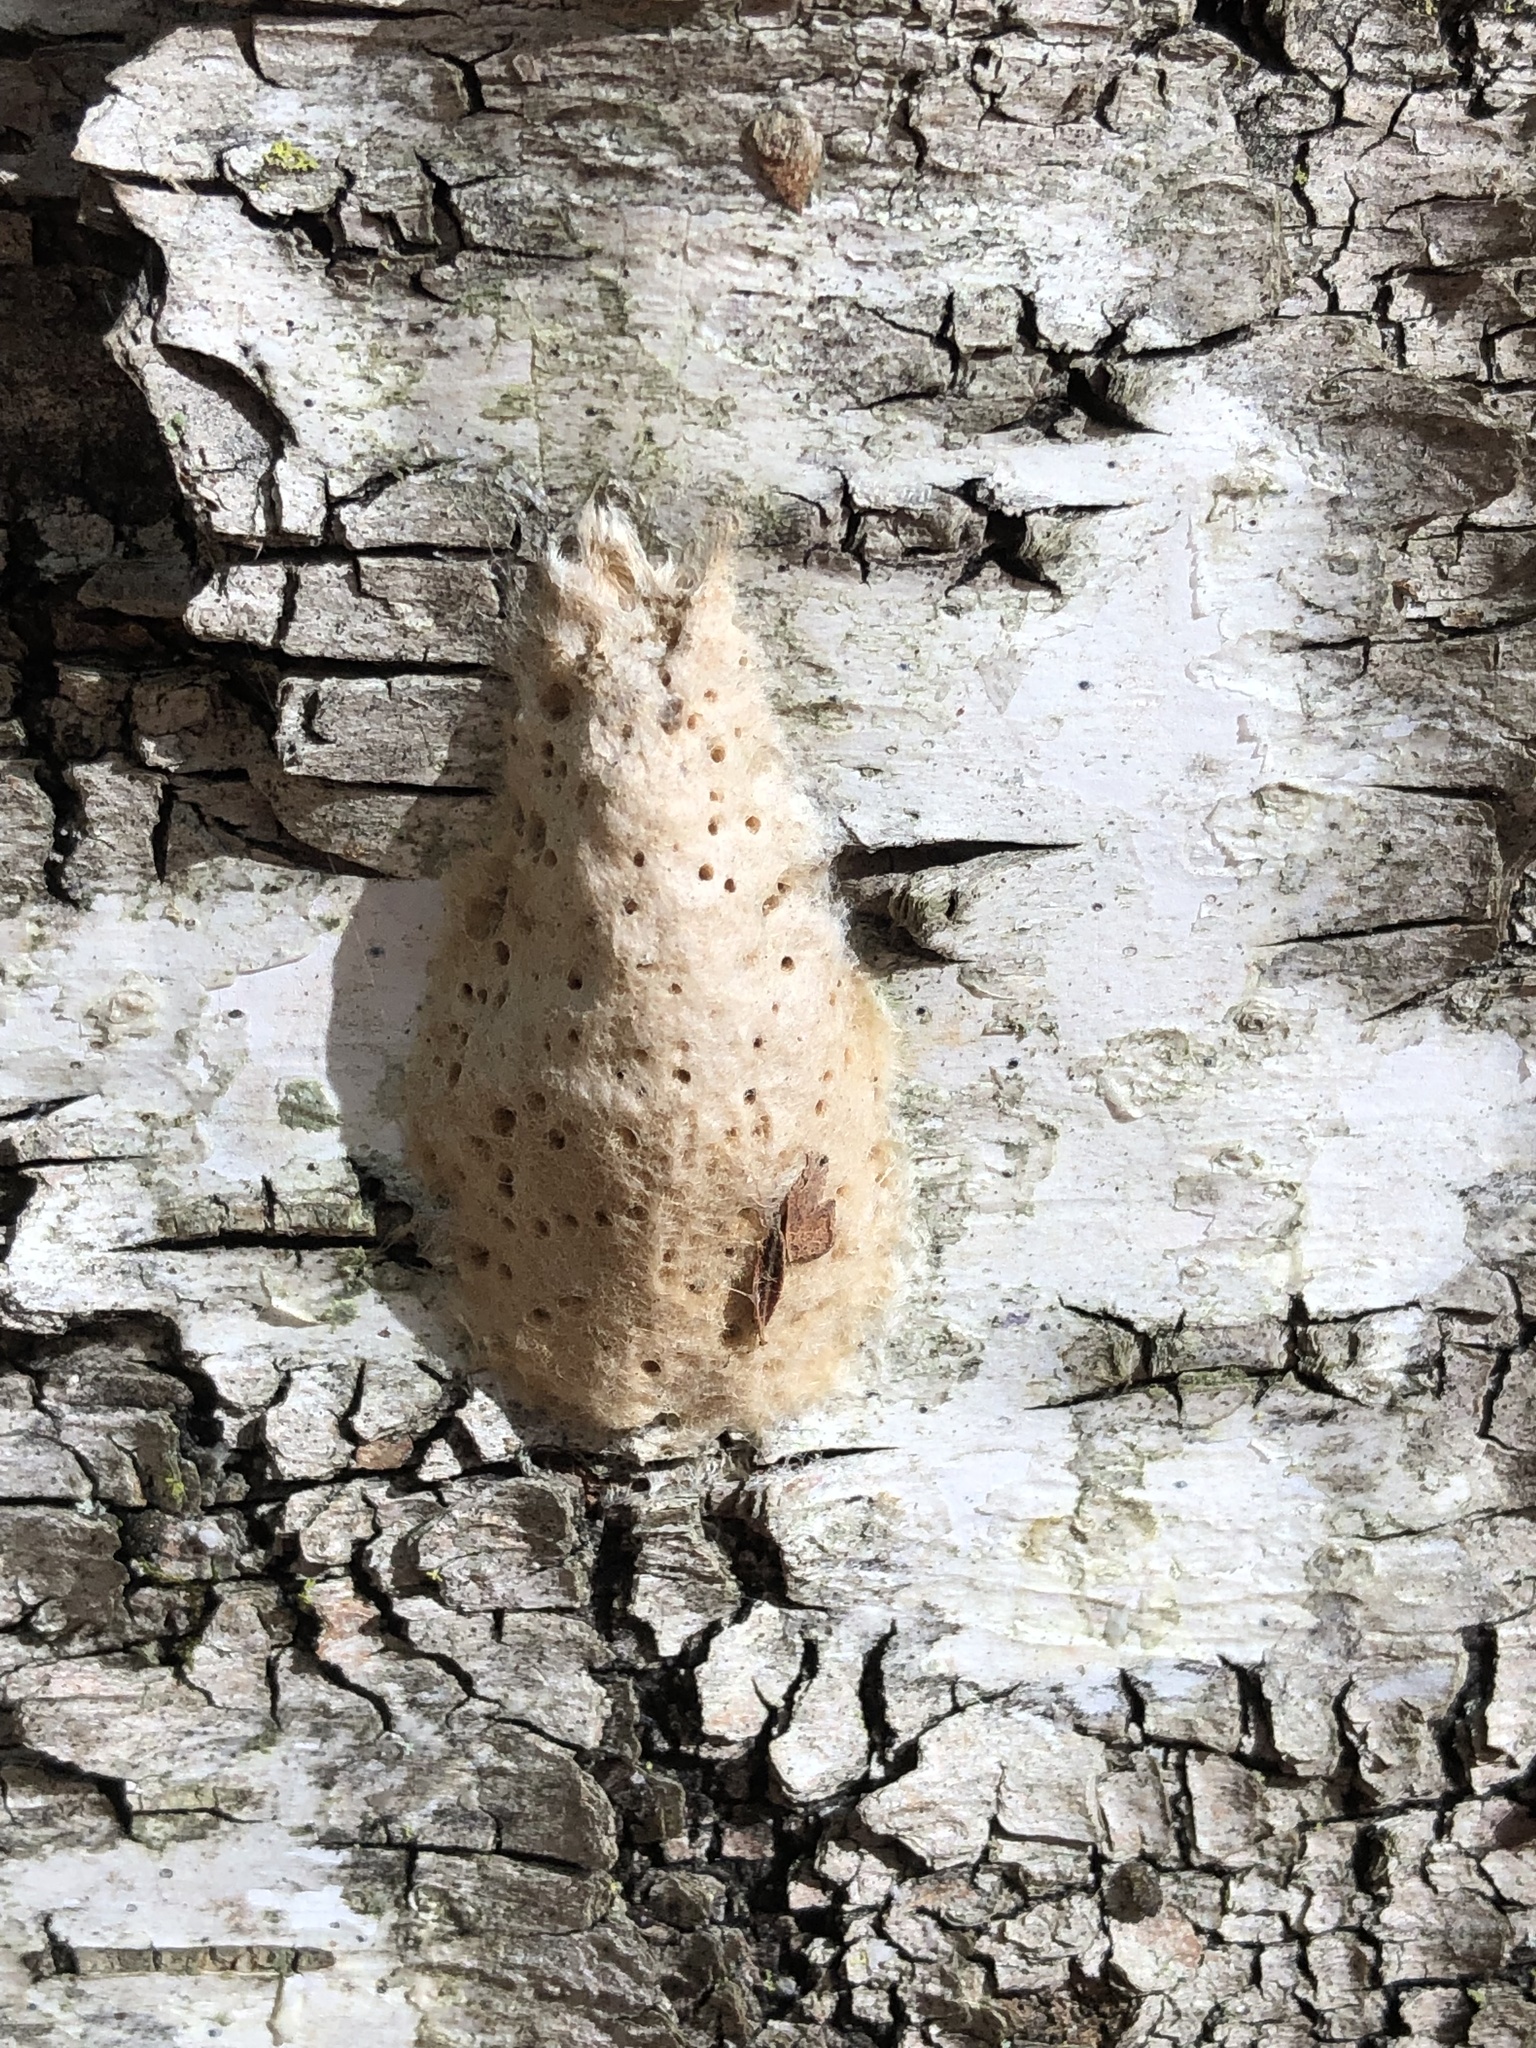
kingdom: Animalia
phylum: Arthropoda
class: Insecta
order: Lepidoptera
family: Erebidae
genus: Lymantria
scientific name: Lymantria dispar
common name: Gypsy moth
